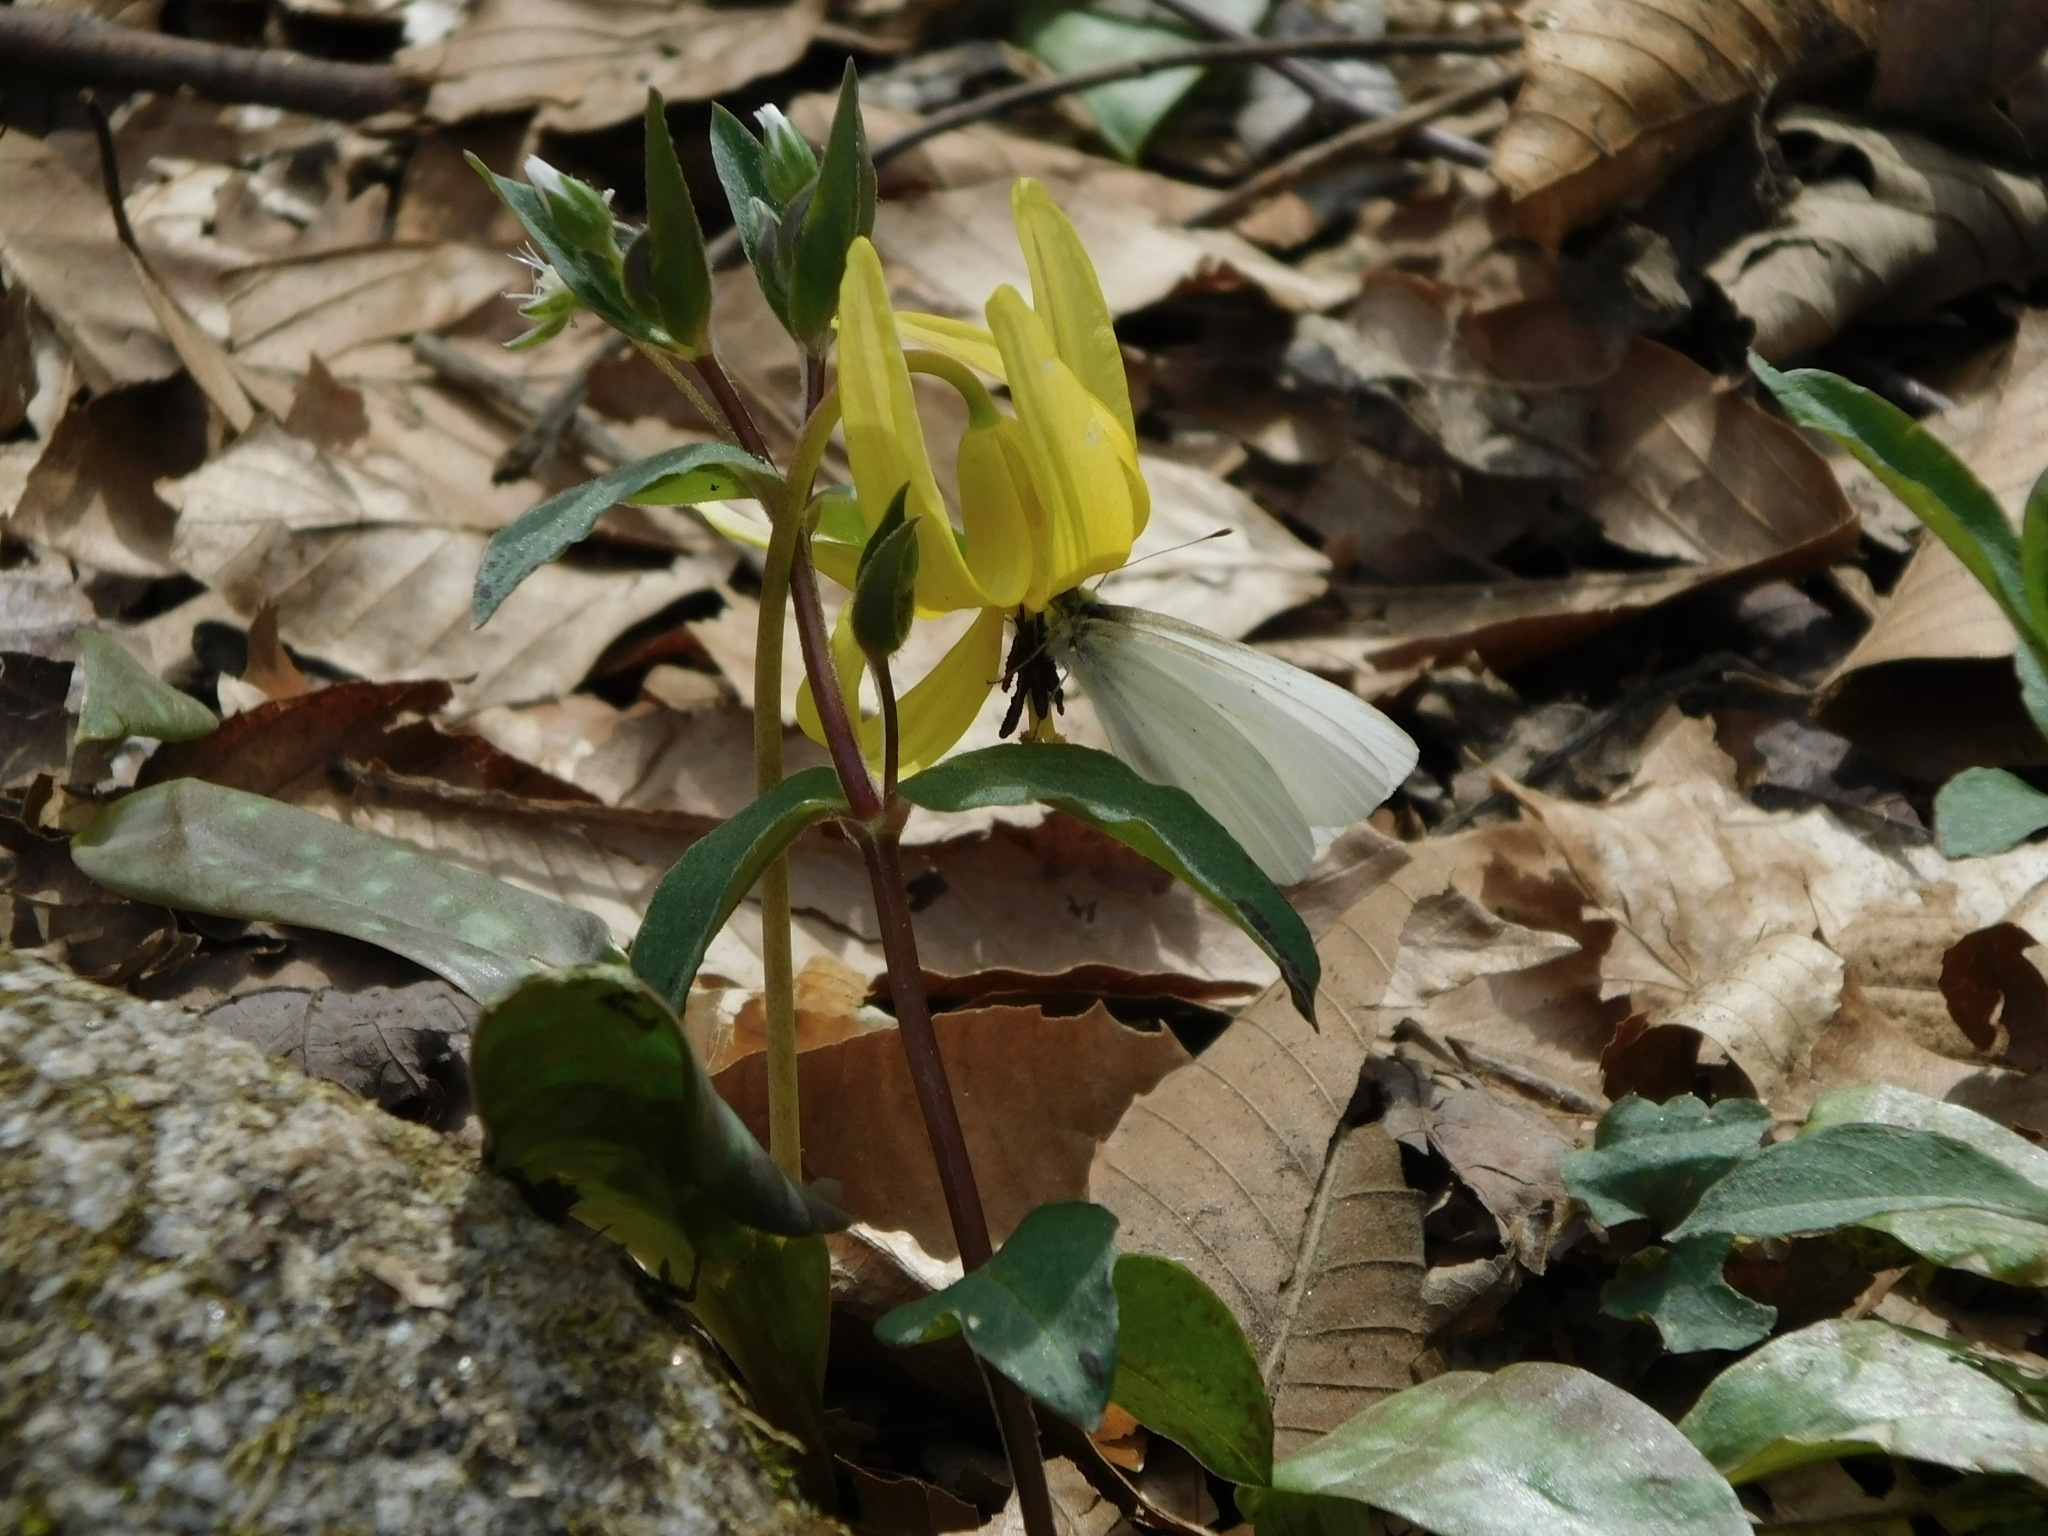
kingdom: Animalia
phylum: Arthropoda
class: Insecta
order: Lepidoptera
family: Pieridae
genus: Pieris
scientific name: Pieris virginiensis
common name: West virginia white
